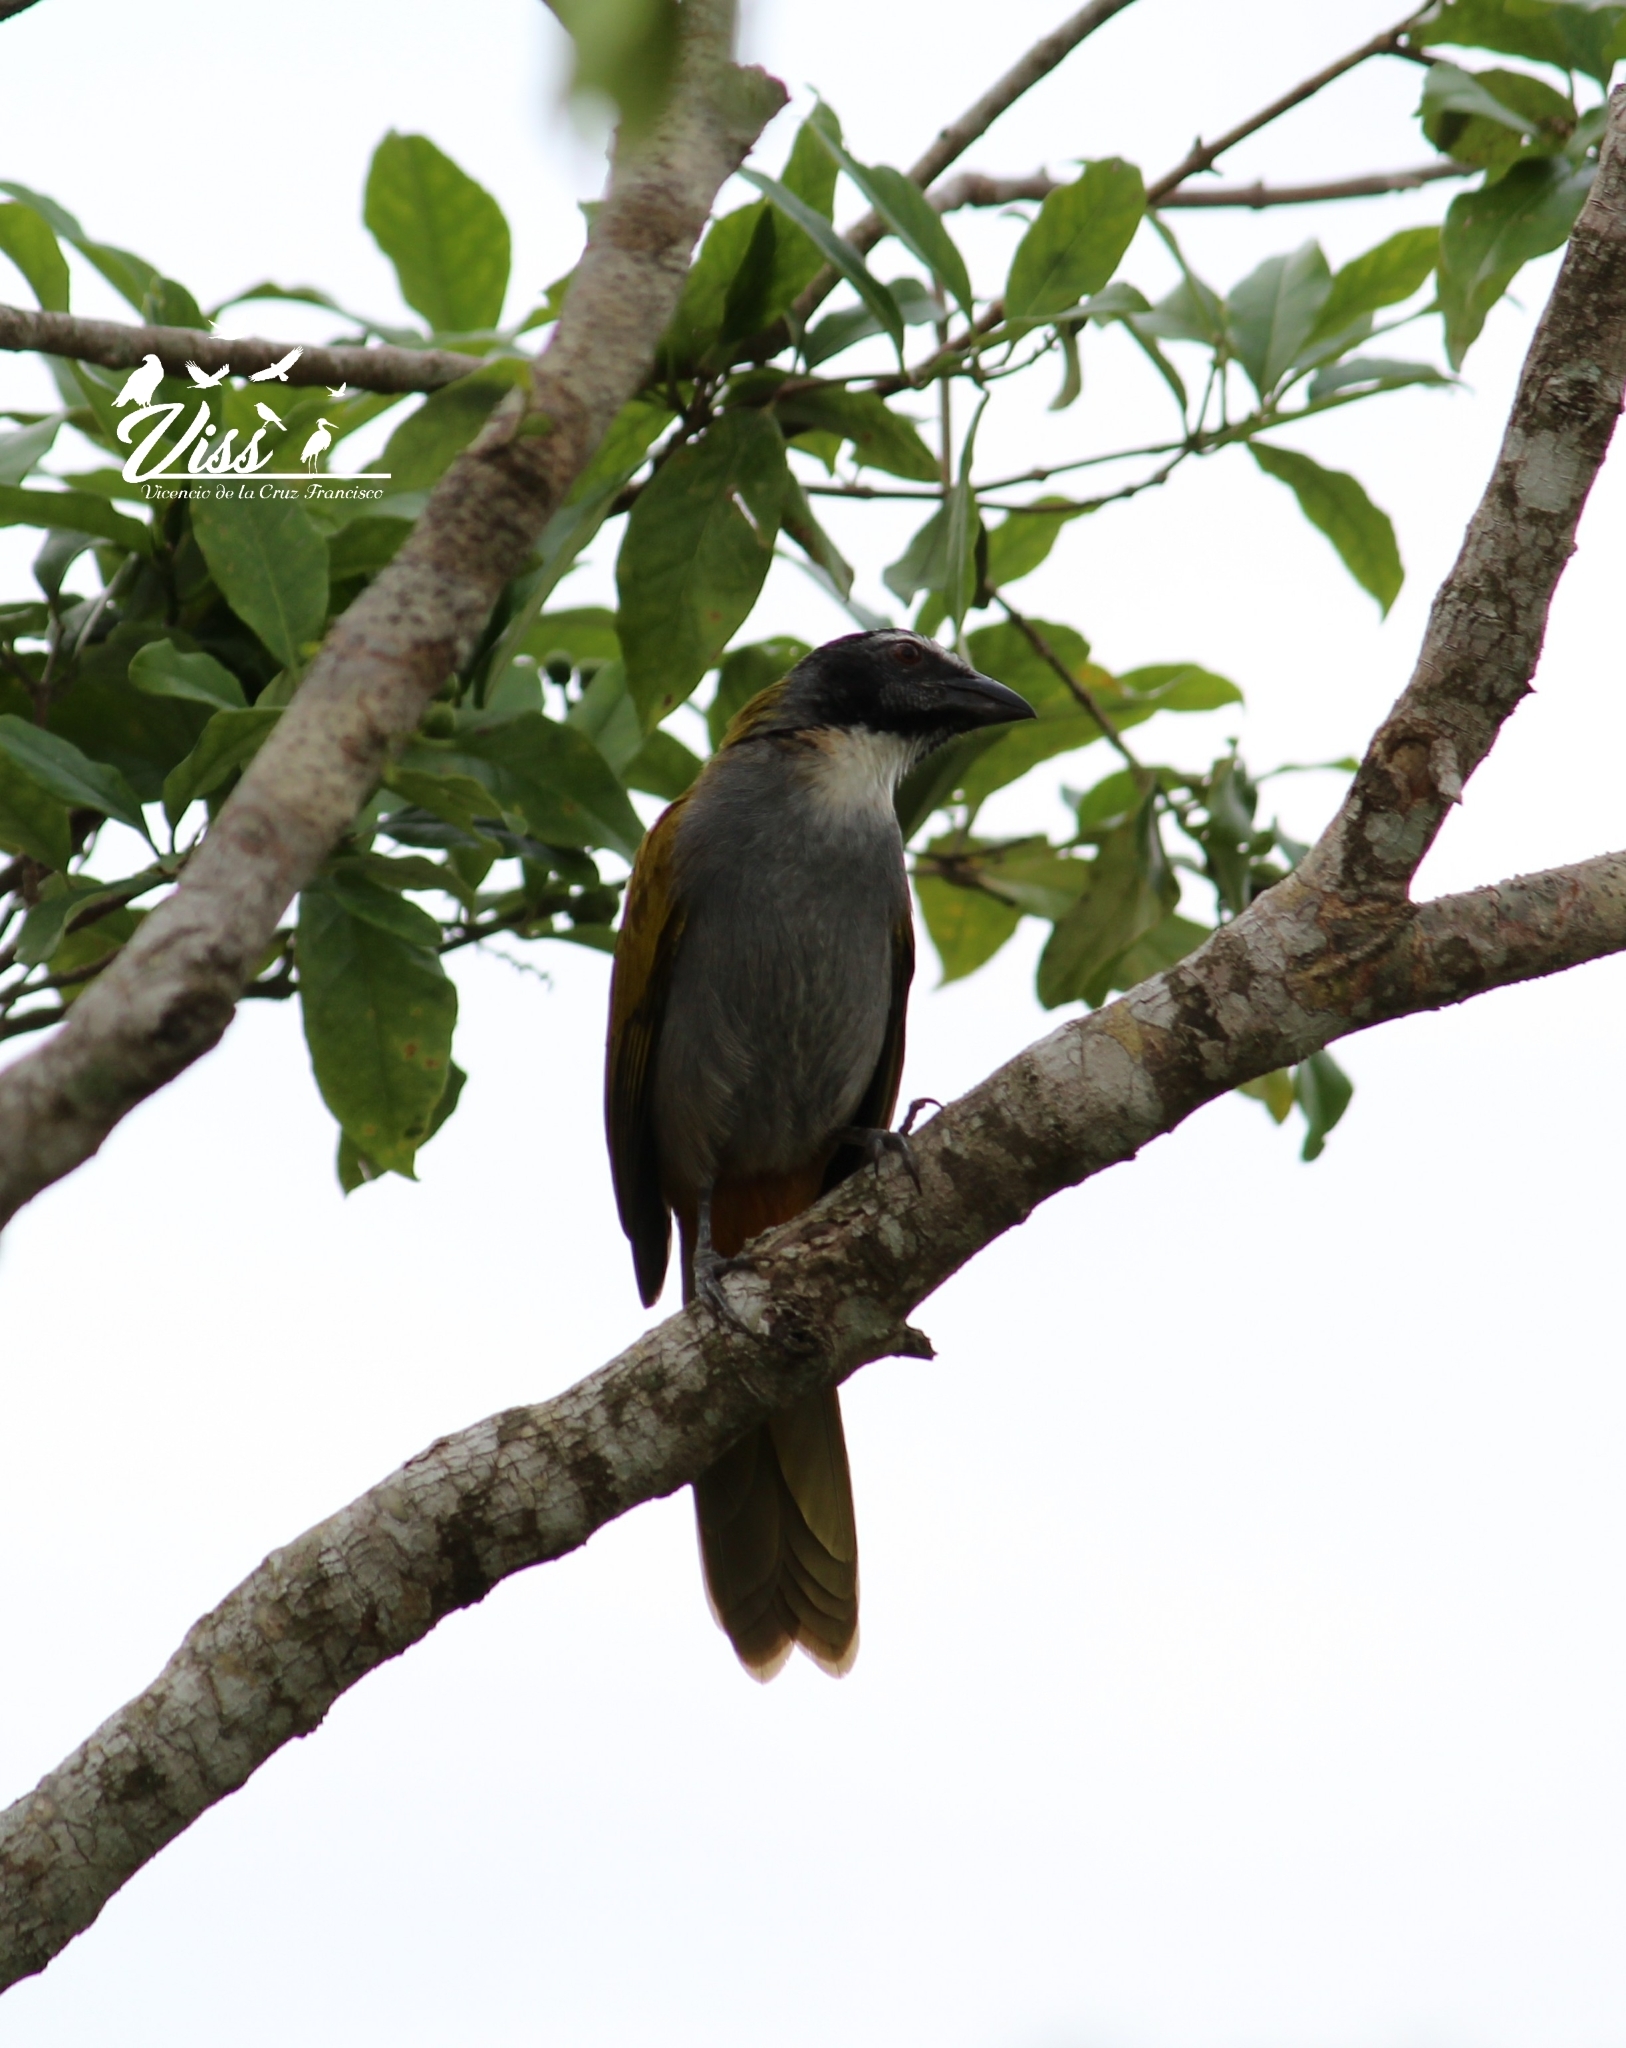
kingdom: Animalia
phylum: Chordata
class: Aves
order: Passeriformes
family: Thraupidae
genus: Saltator
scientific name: Saltator atriceps
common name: Black-headed saltator
